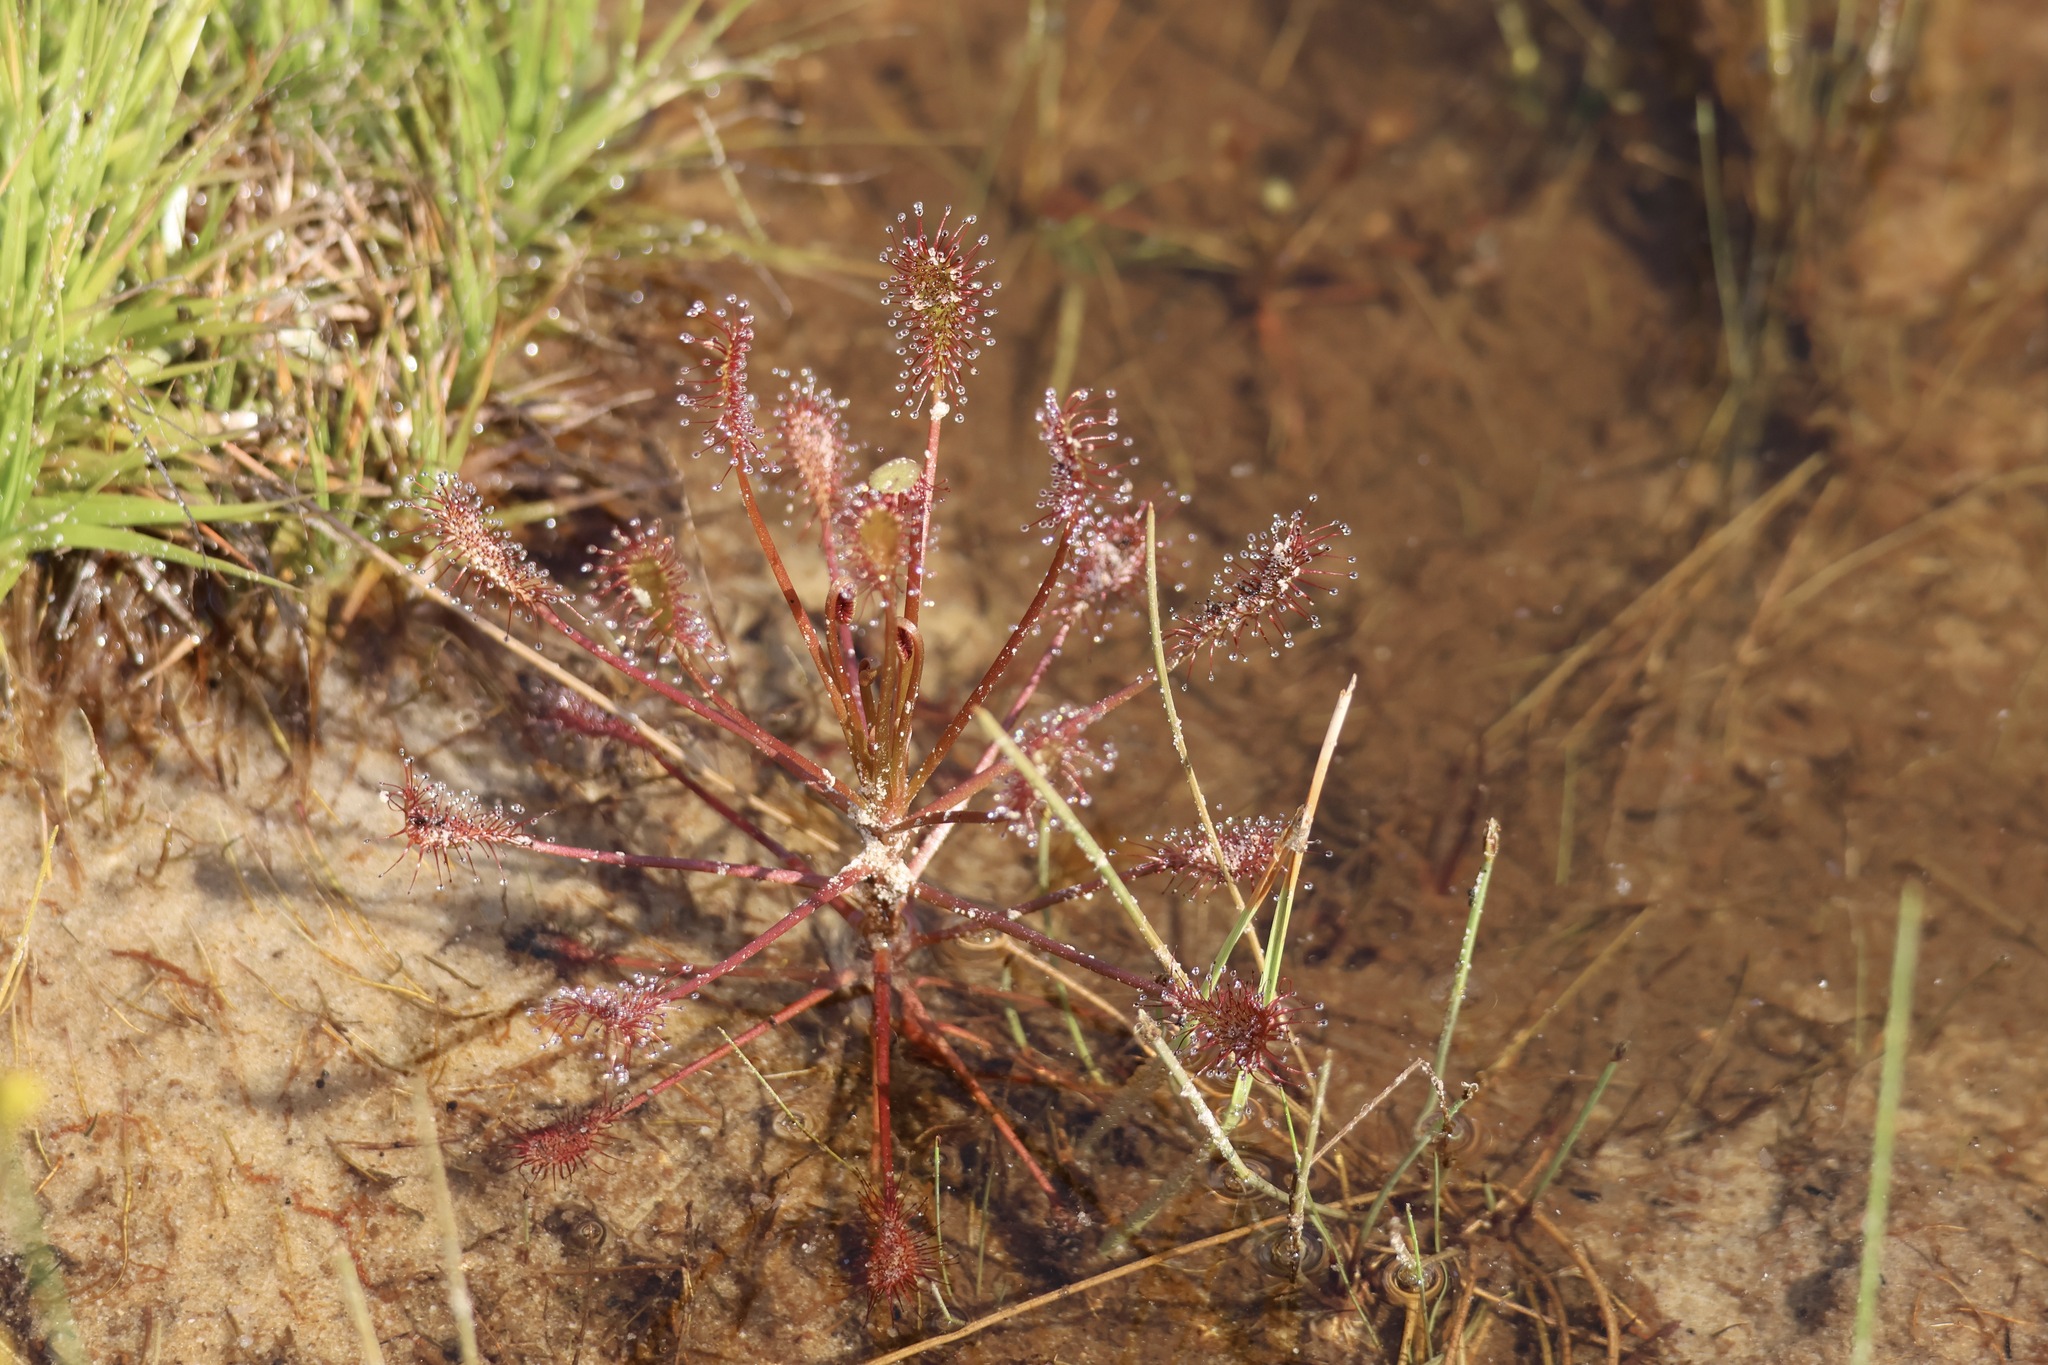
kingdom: Plantae
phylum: Tracheophyta
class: Magnoliopsida
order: Caryophyllales
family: Droseraceae
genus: Drosera
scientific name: Drosera intermedia
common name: Oblong-leaved sundew
